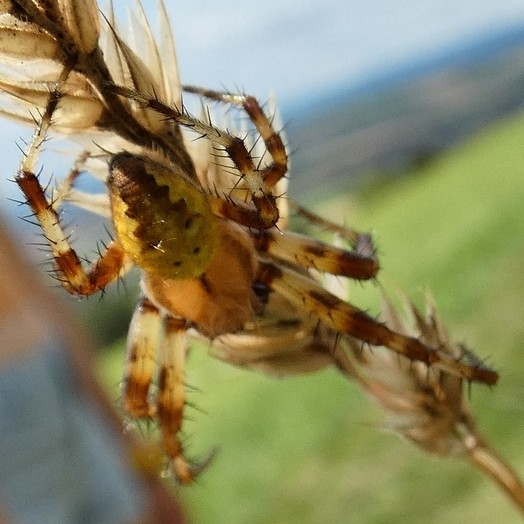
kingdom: Animalia
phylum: Arthropoda
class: Arachnida
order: Araneae
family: Araneidae
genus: Araneus
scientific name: Araneus quadratus
